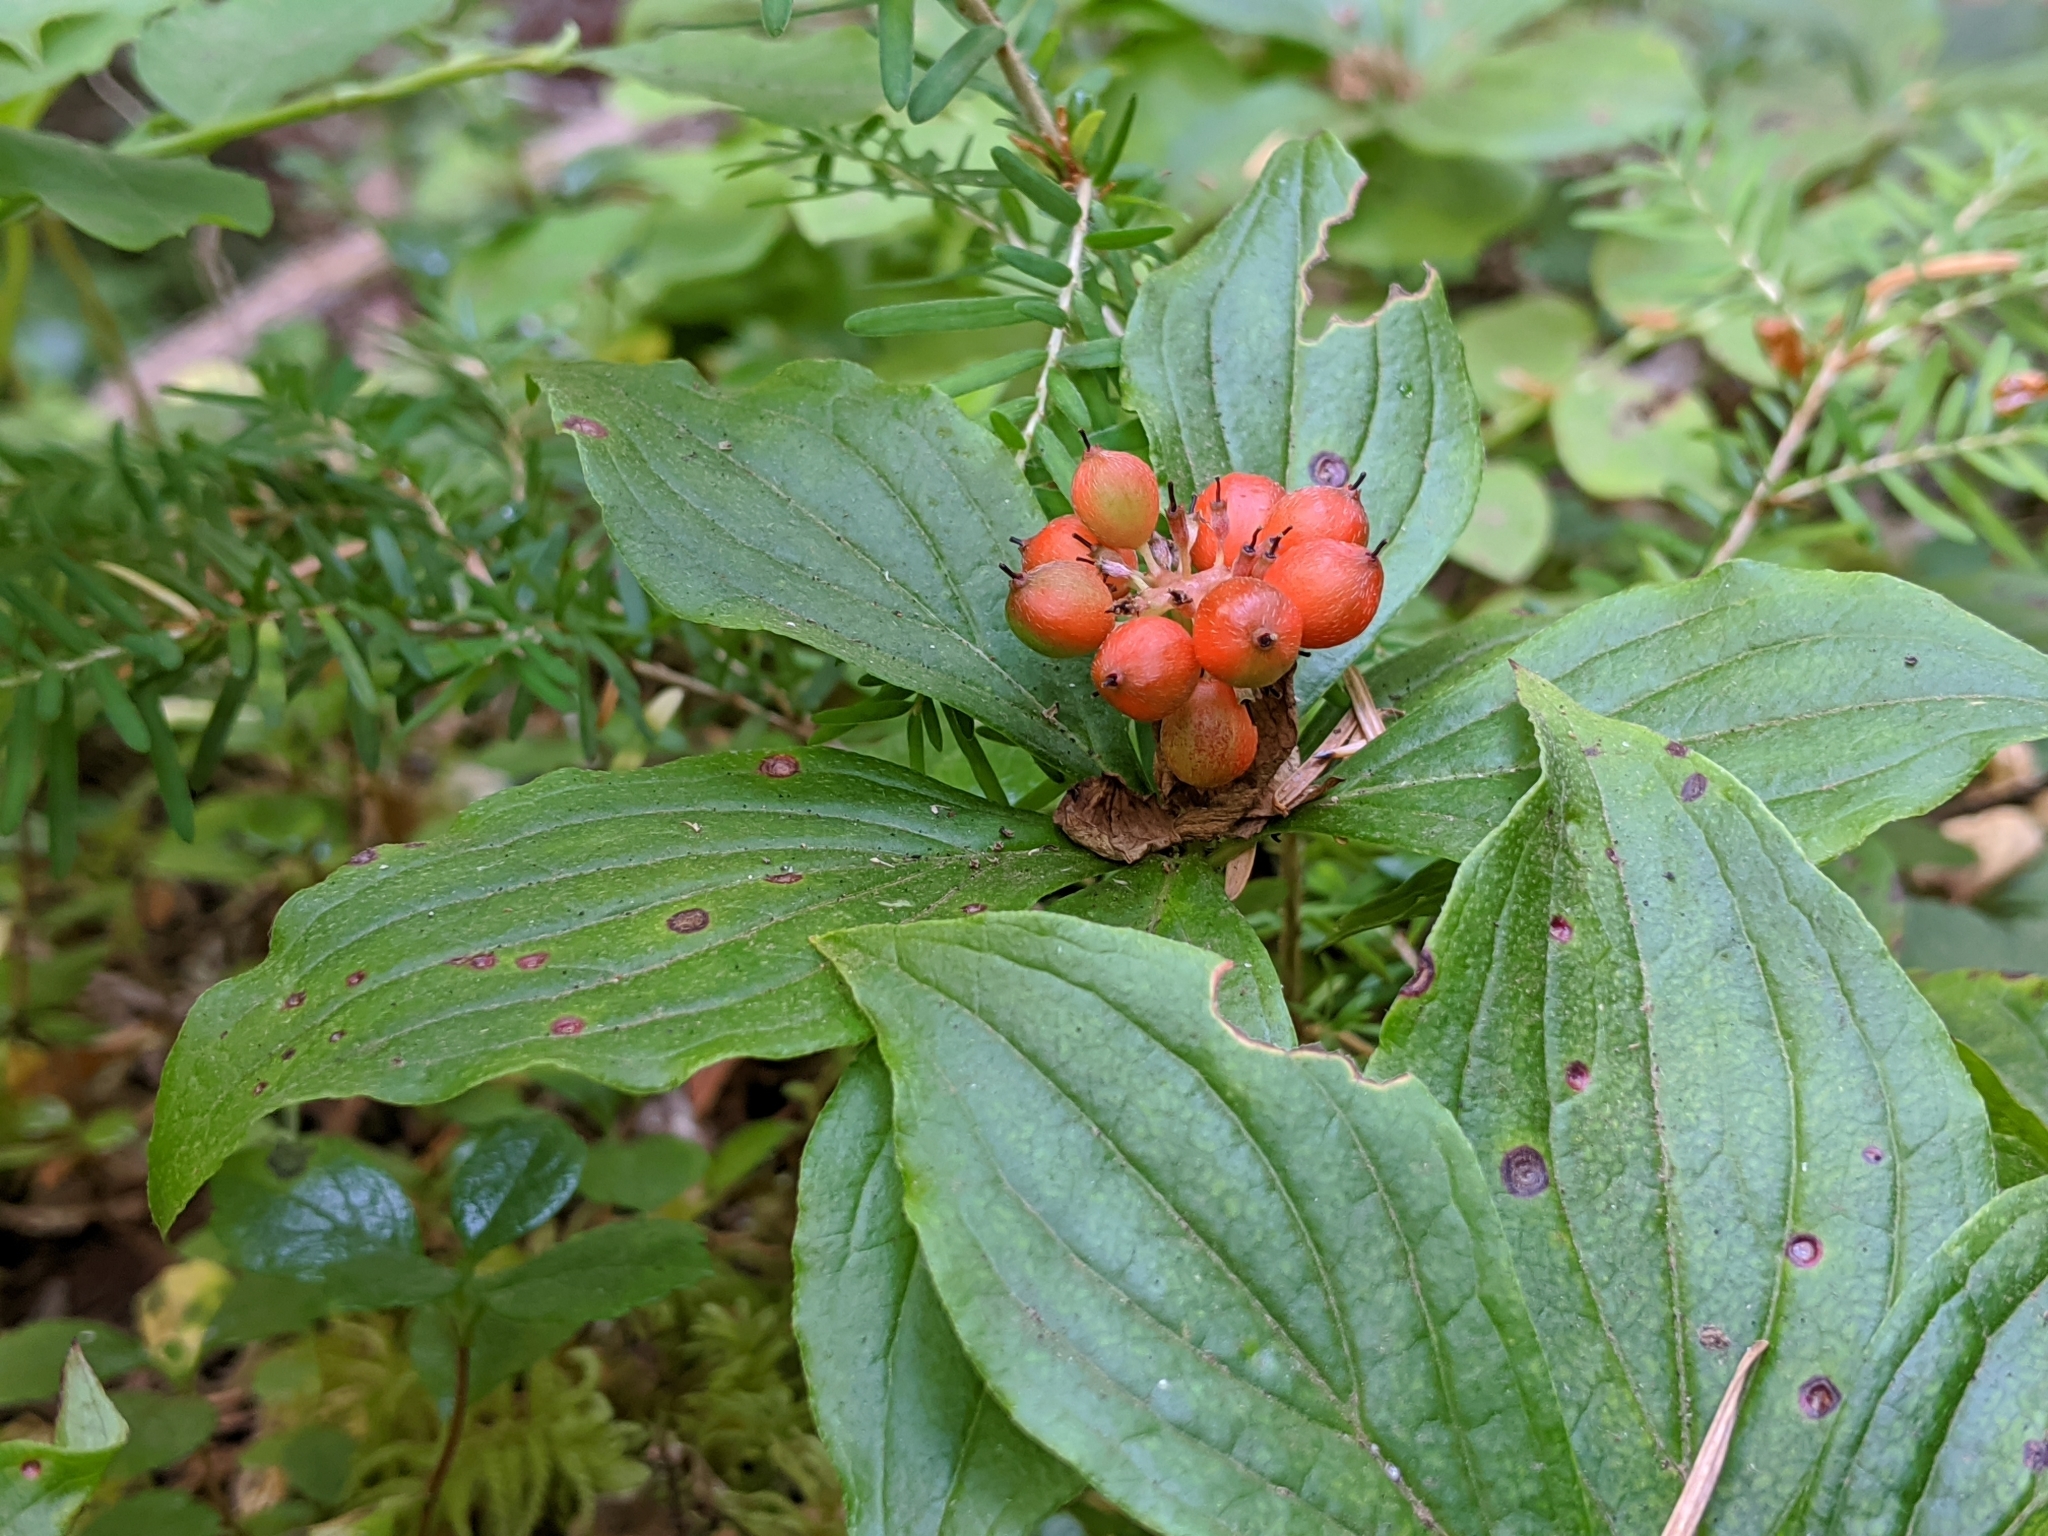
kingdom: Plantae
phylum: Tracheophyta
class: Magnoliopsida
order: Cornales
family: Cornaceae
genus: Cornus
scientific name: Cornus unalaschkensis
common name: Alaska bunchberry
